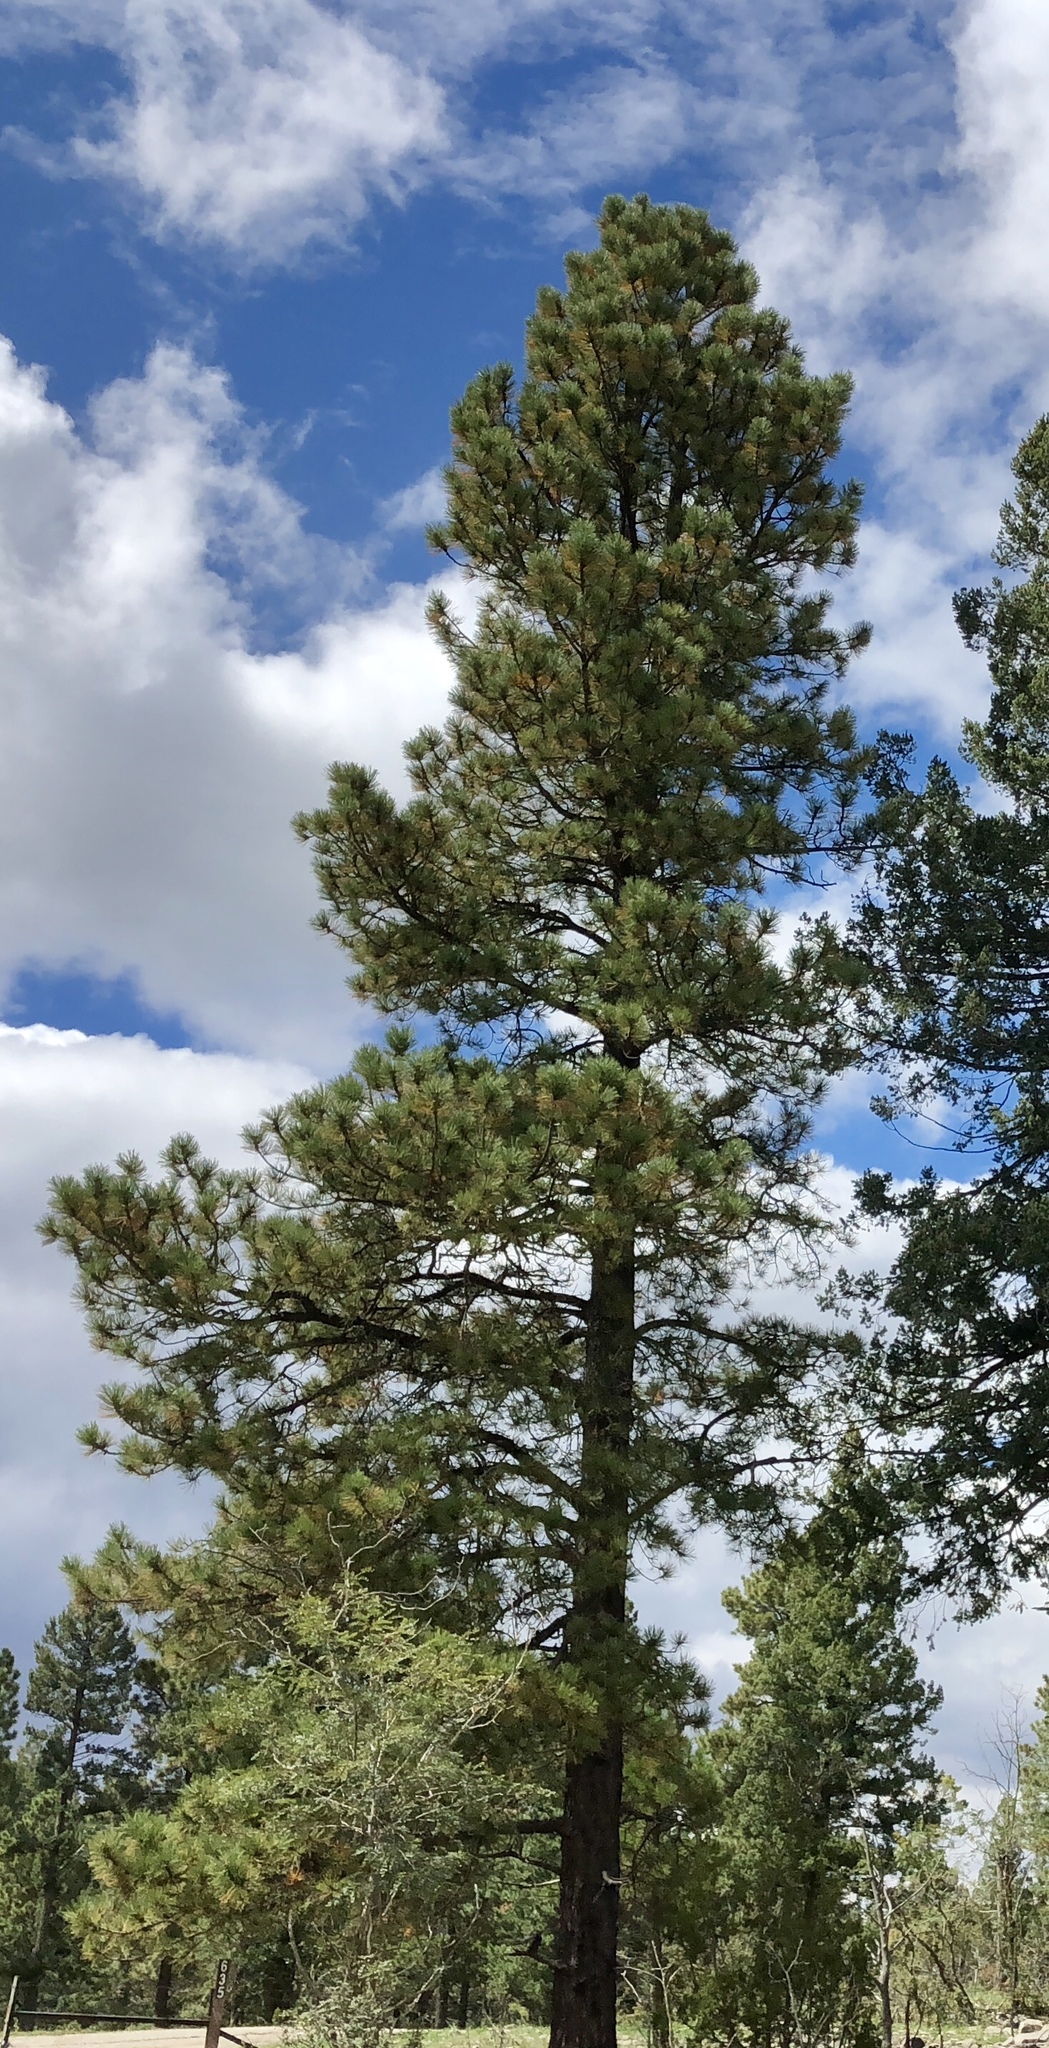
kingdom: Plantae
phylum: Tracheophyta
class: Pinopsida
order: Pinales
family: Pinaceae
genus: Pinus
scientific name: Pinus ponderosa
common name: Western yellow-pine
